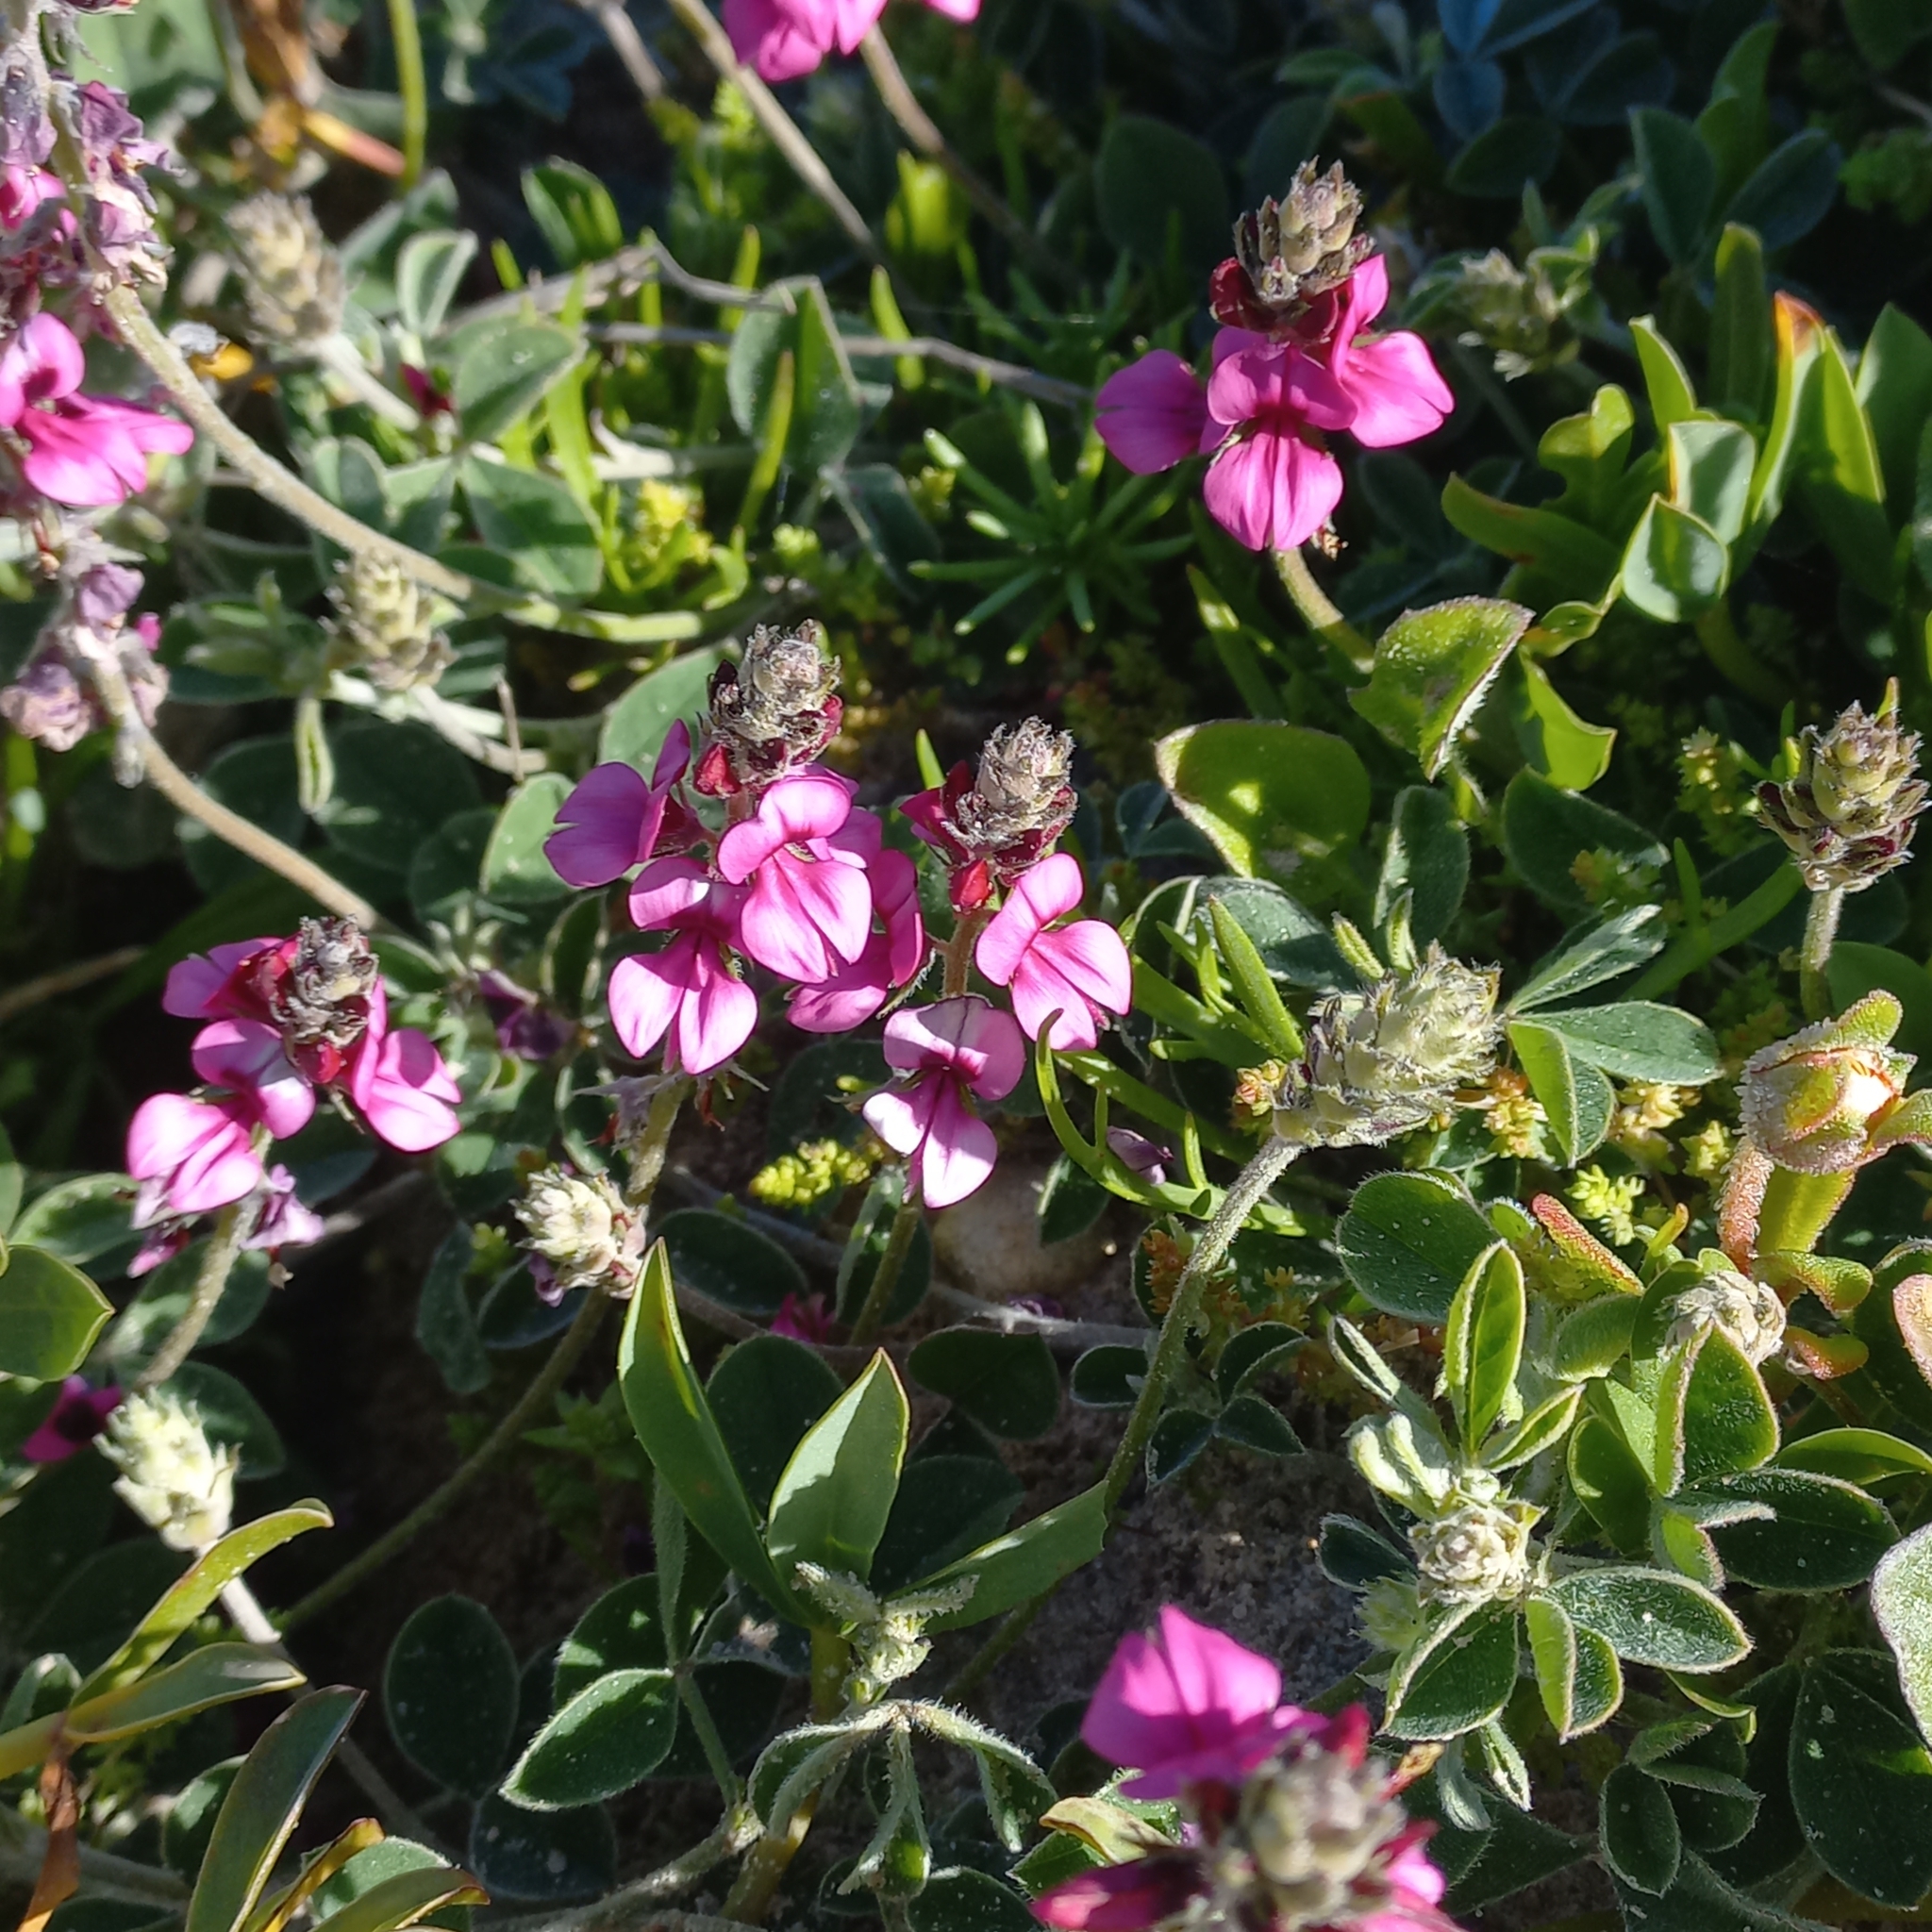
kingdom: Plantae
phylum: Tracheophyta
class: Magnoliopsida
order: Fabales
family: Fabaceae
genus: Indigofera
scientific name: Indigofera incana
